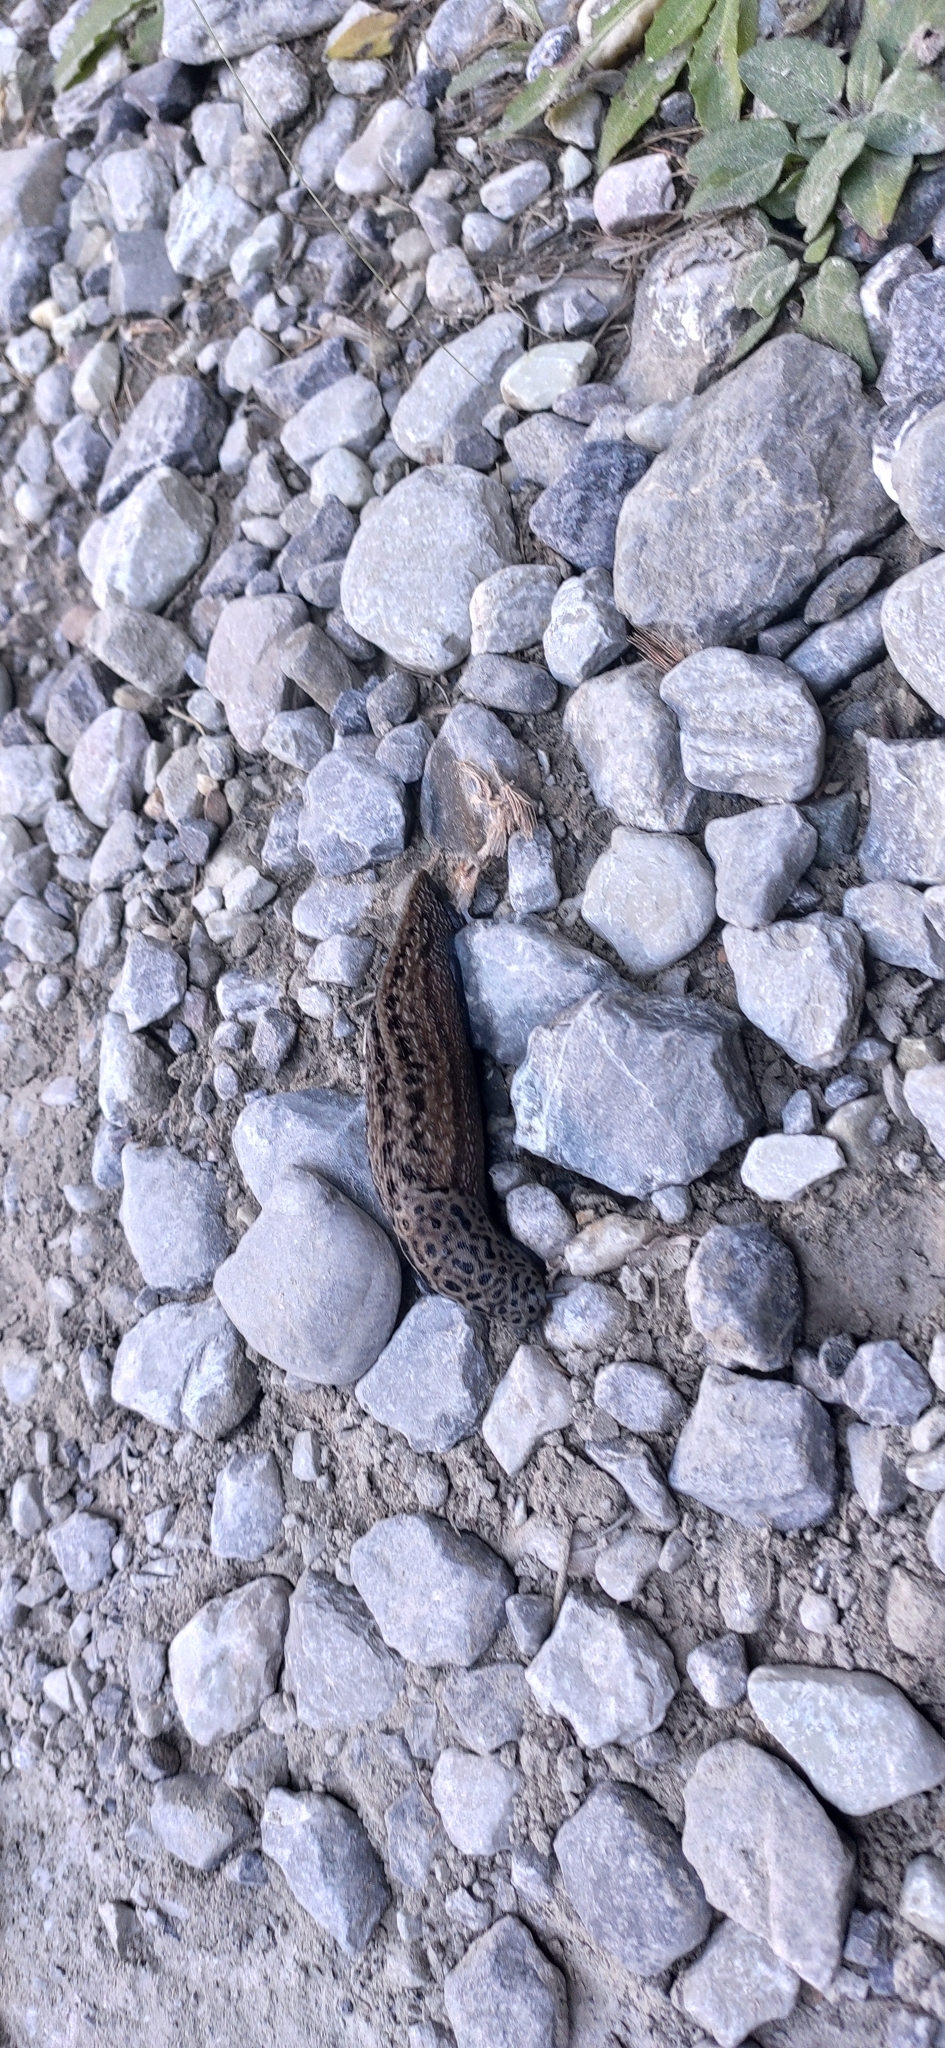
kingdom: Animalia
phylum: Mollusca
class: Gastropoda
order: Stylommatophora
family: Limacidae
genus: Limax
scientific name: Limax maximus
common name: Great grey slug
